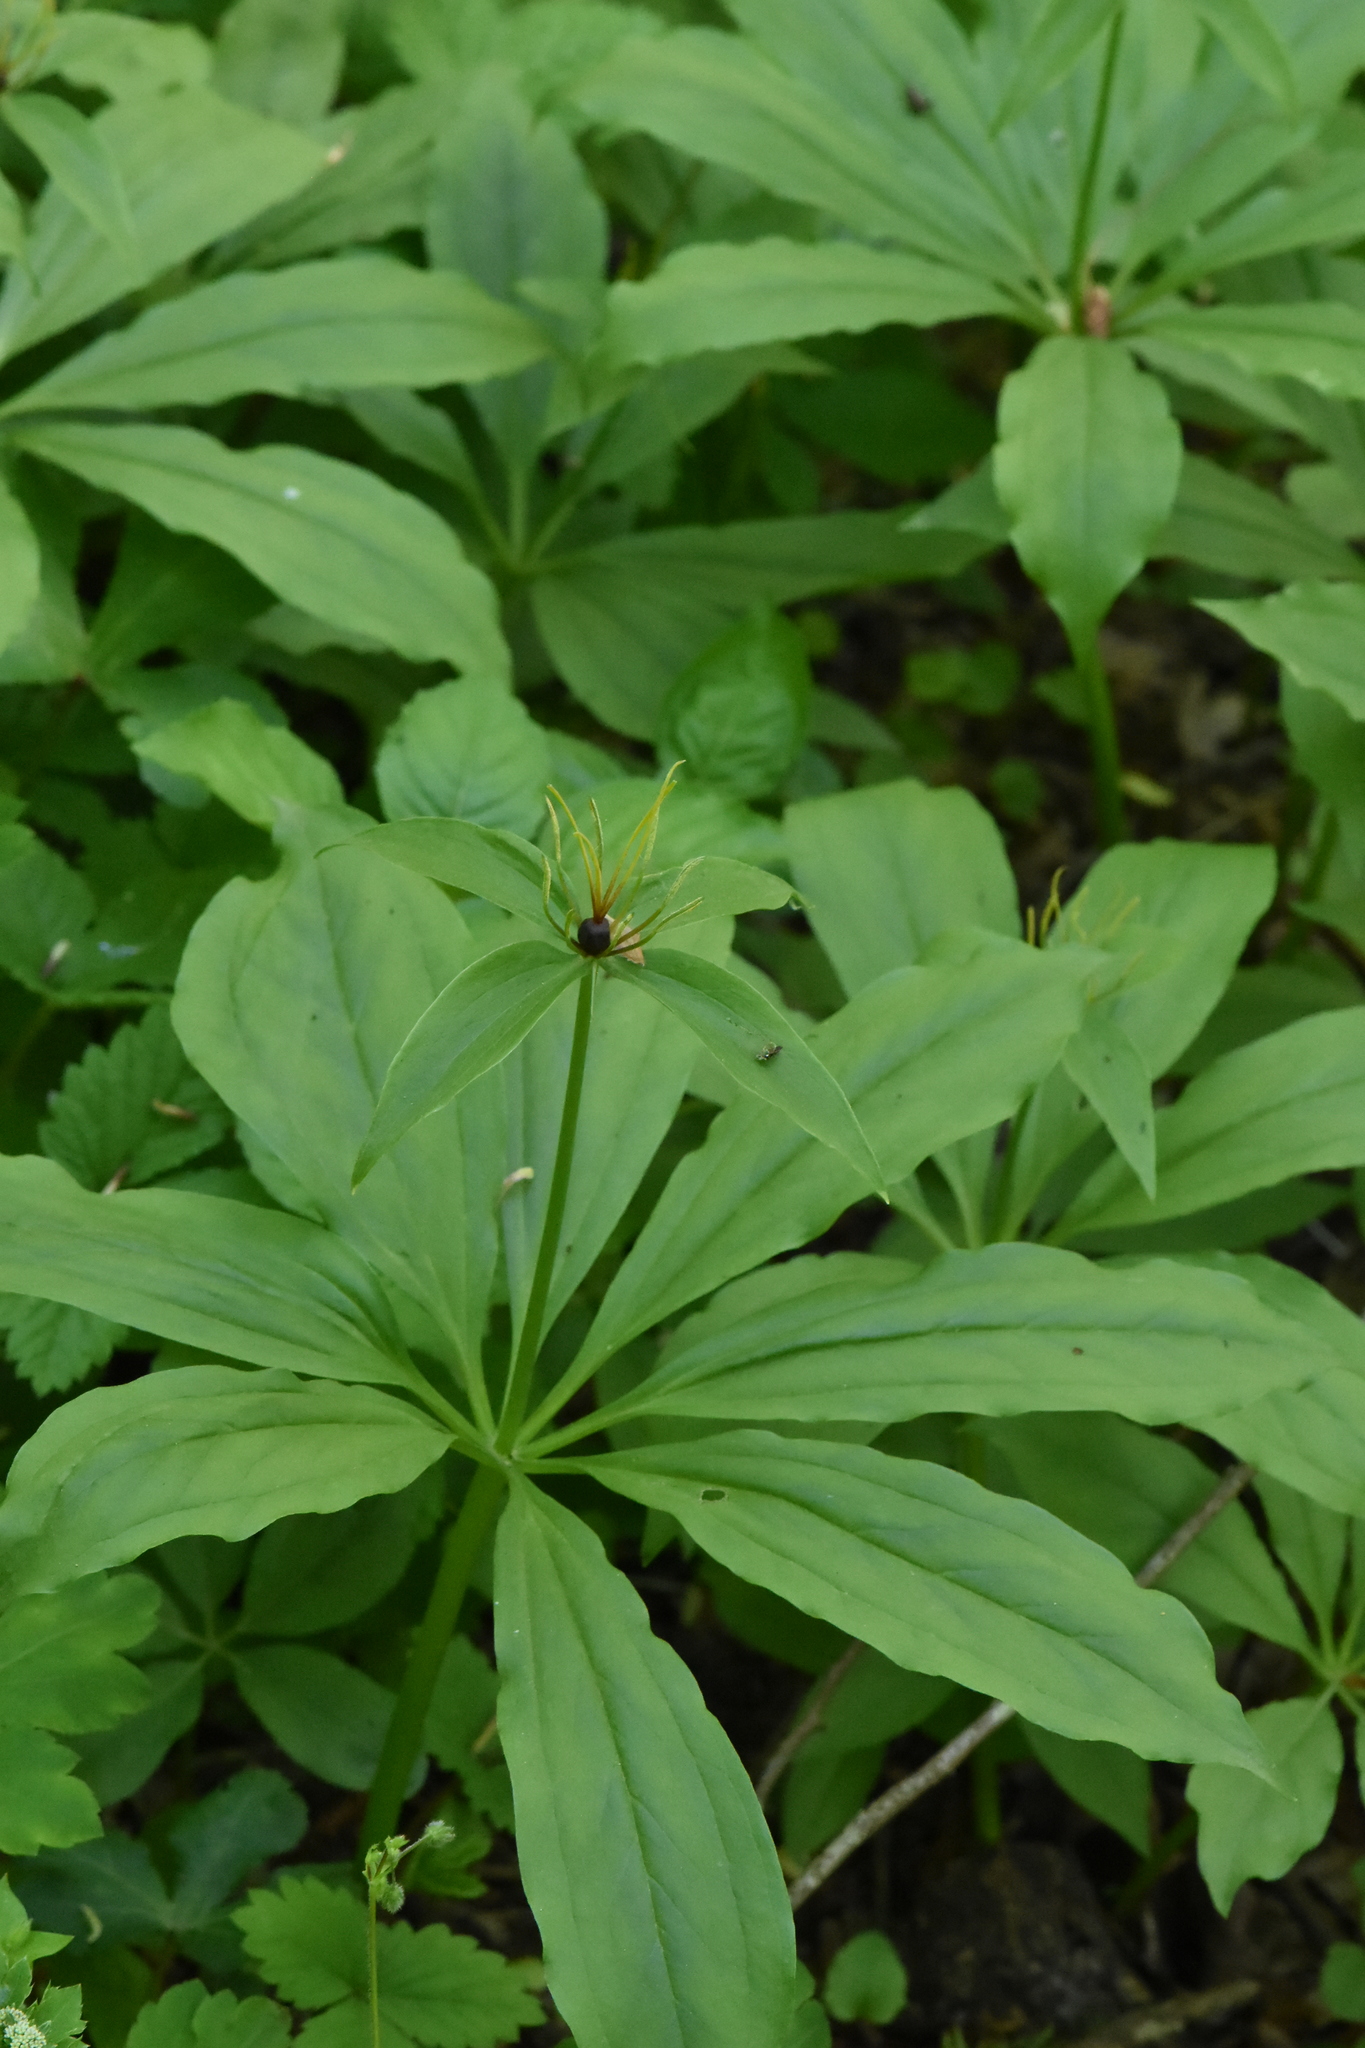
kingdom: Plantae
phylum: Tracheophyta
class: Liliopsida
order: Liliales
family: Melanthiaceae
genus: Paris
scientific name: Paris incompleta
